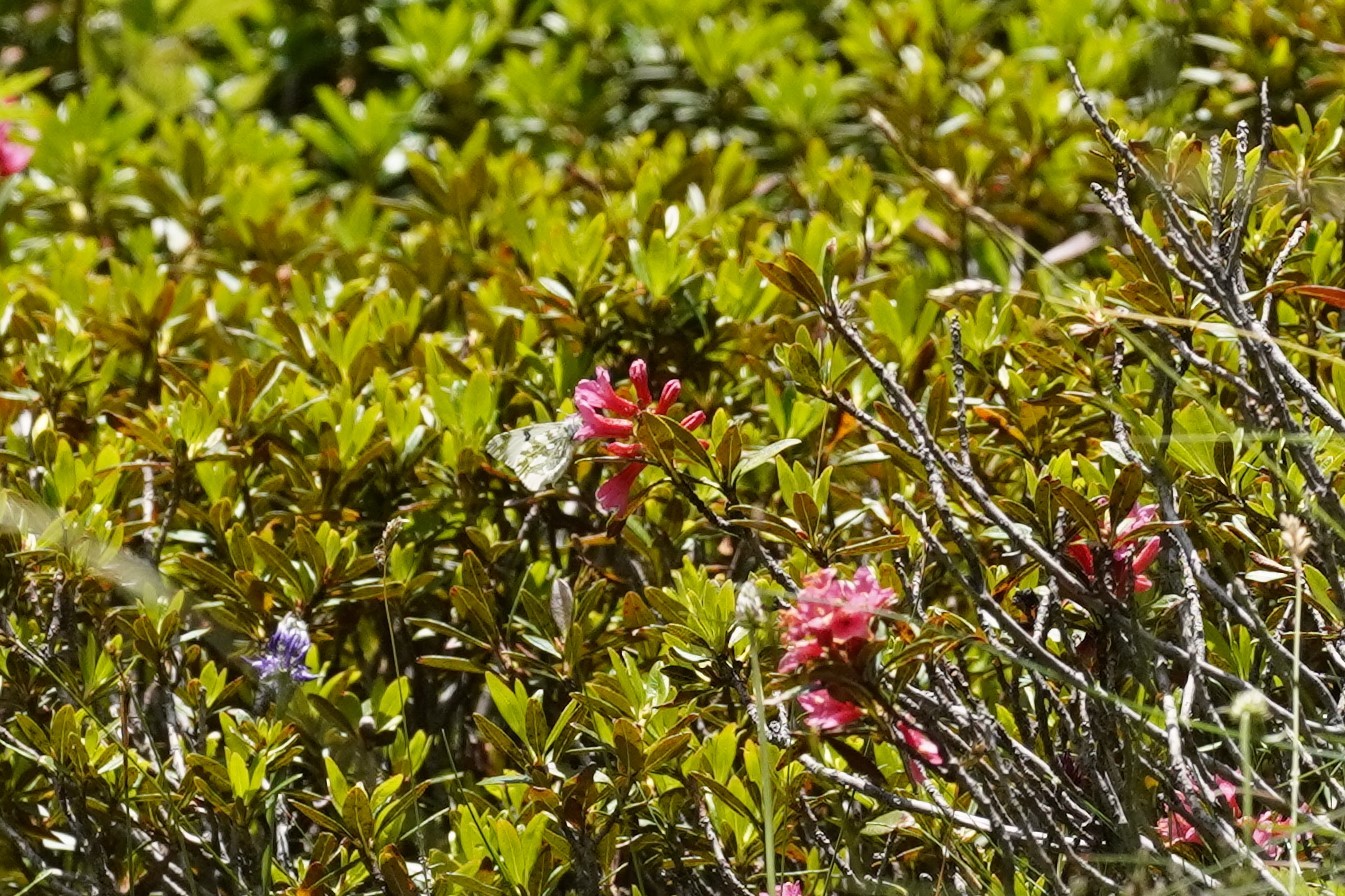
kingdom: Animalia
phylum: Arthropoda
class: Insecta
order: Lepidoptera
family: Pieridae
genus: Euchloe
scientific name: Euchloe simplonia
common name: Mountain dappled white
